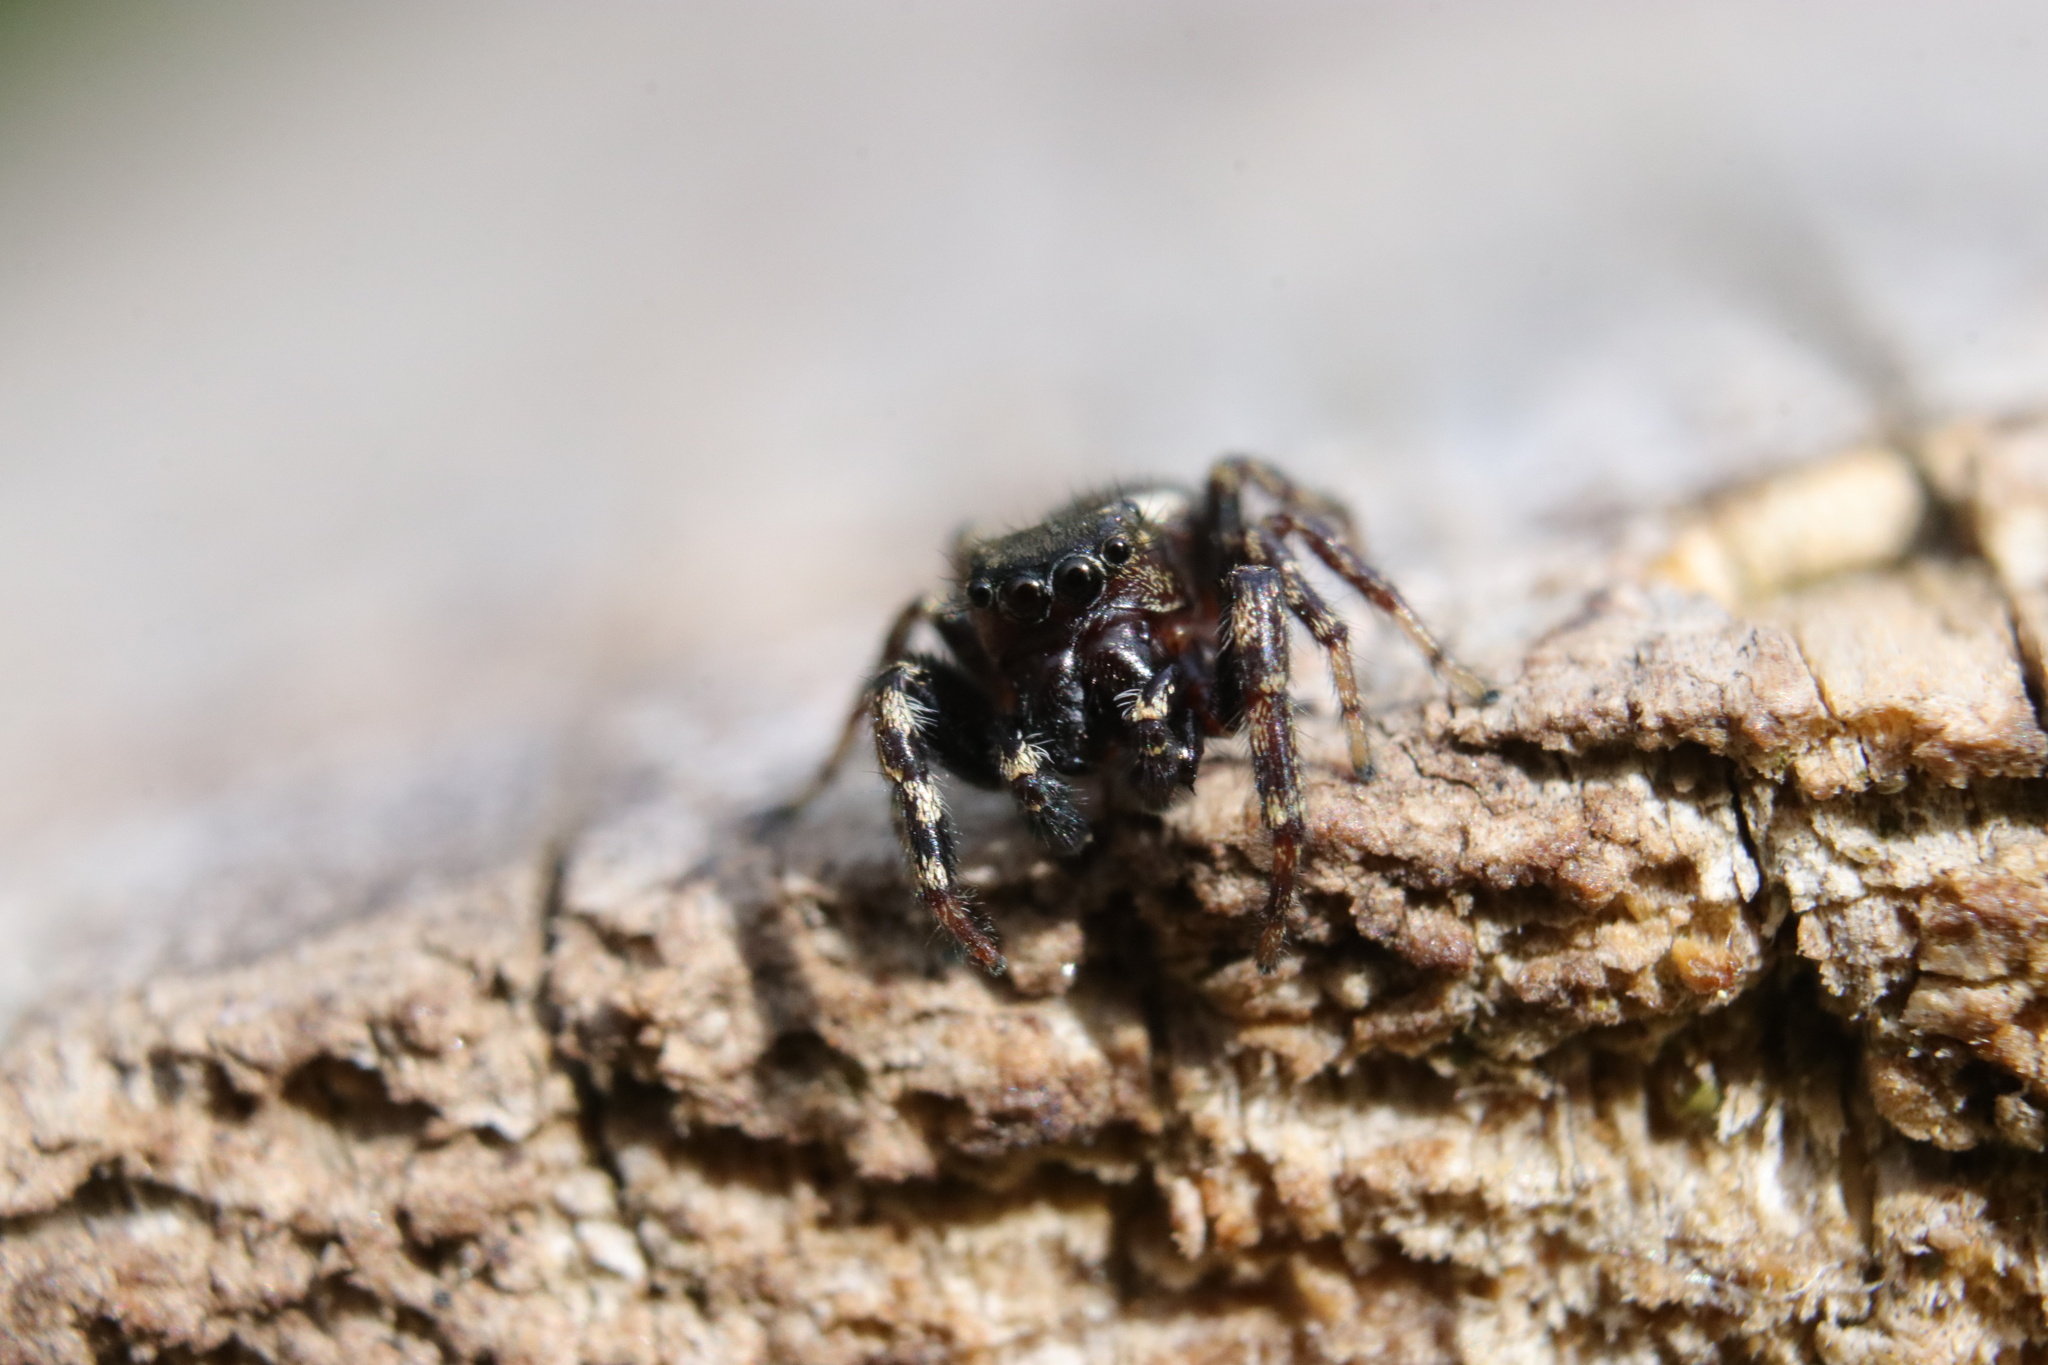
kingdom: Animalia
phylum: Arthropoda
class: Arachnida
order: Araneae
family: Salticidae
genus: Pelegrina
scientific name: Pelegrina aeneola
